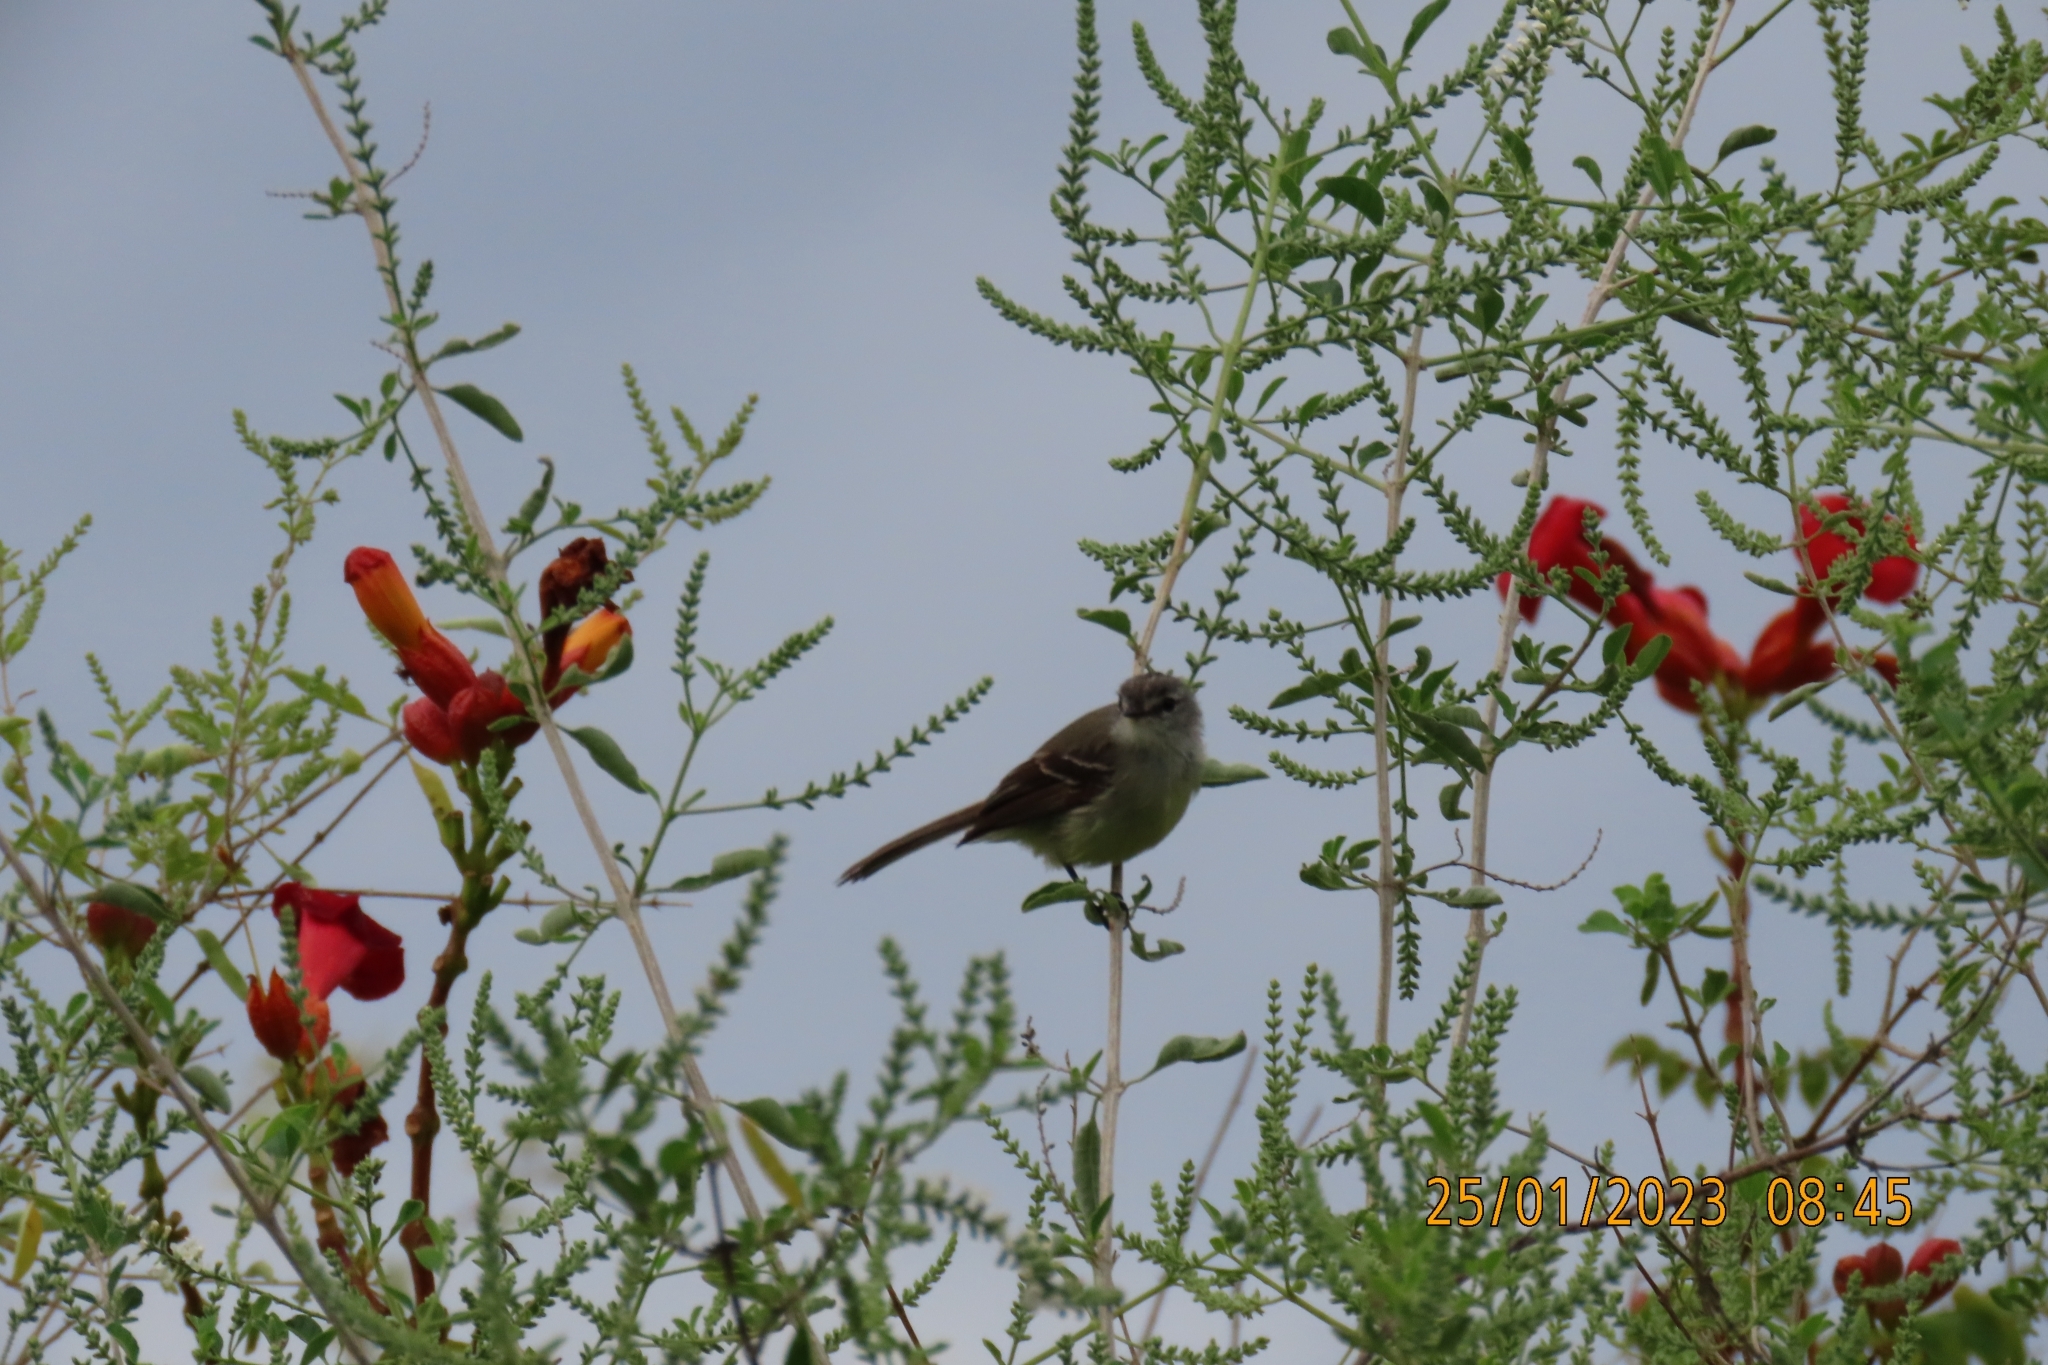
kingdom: Animalia
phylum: Chordata
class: Aves
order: Passeriformes
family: Tyrannidae
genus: Serpophaga
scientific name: Serpophaga subcristata
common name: White-crested tyrannulet
